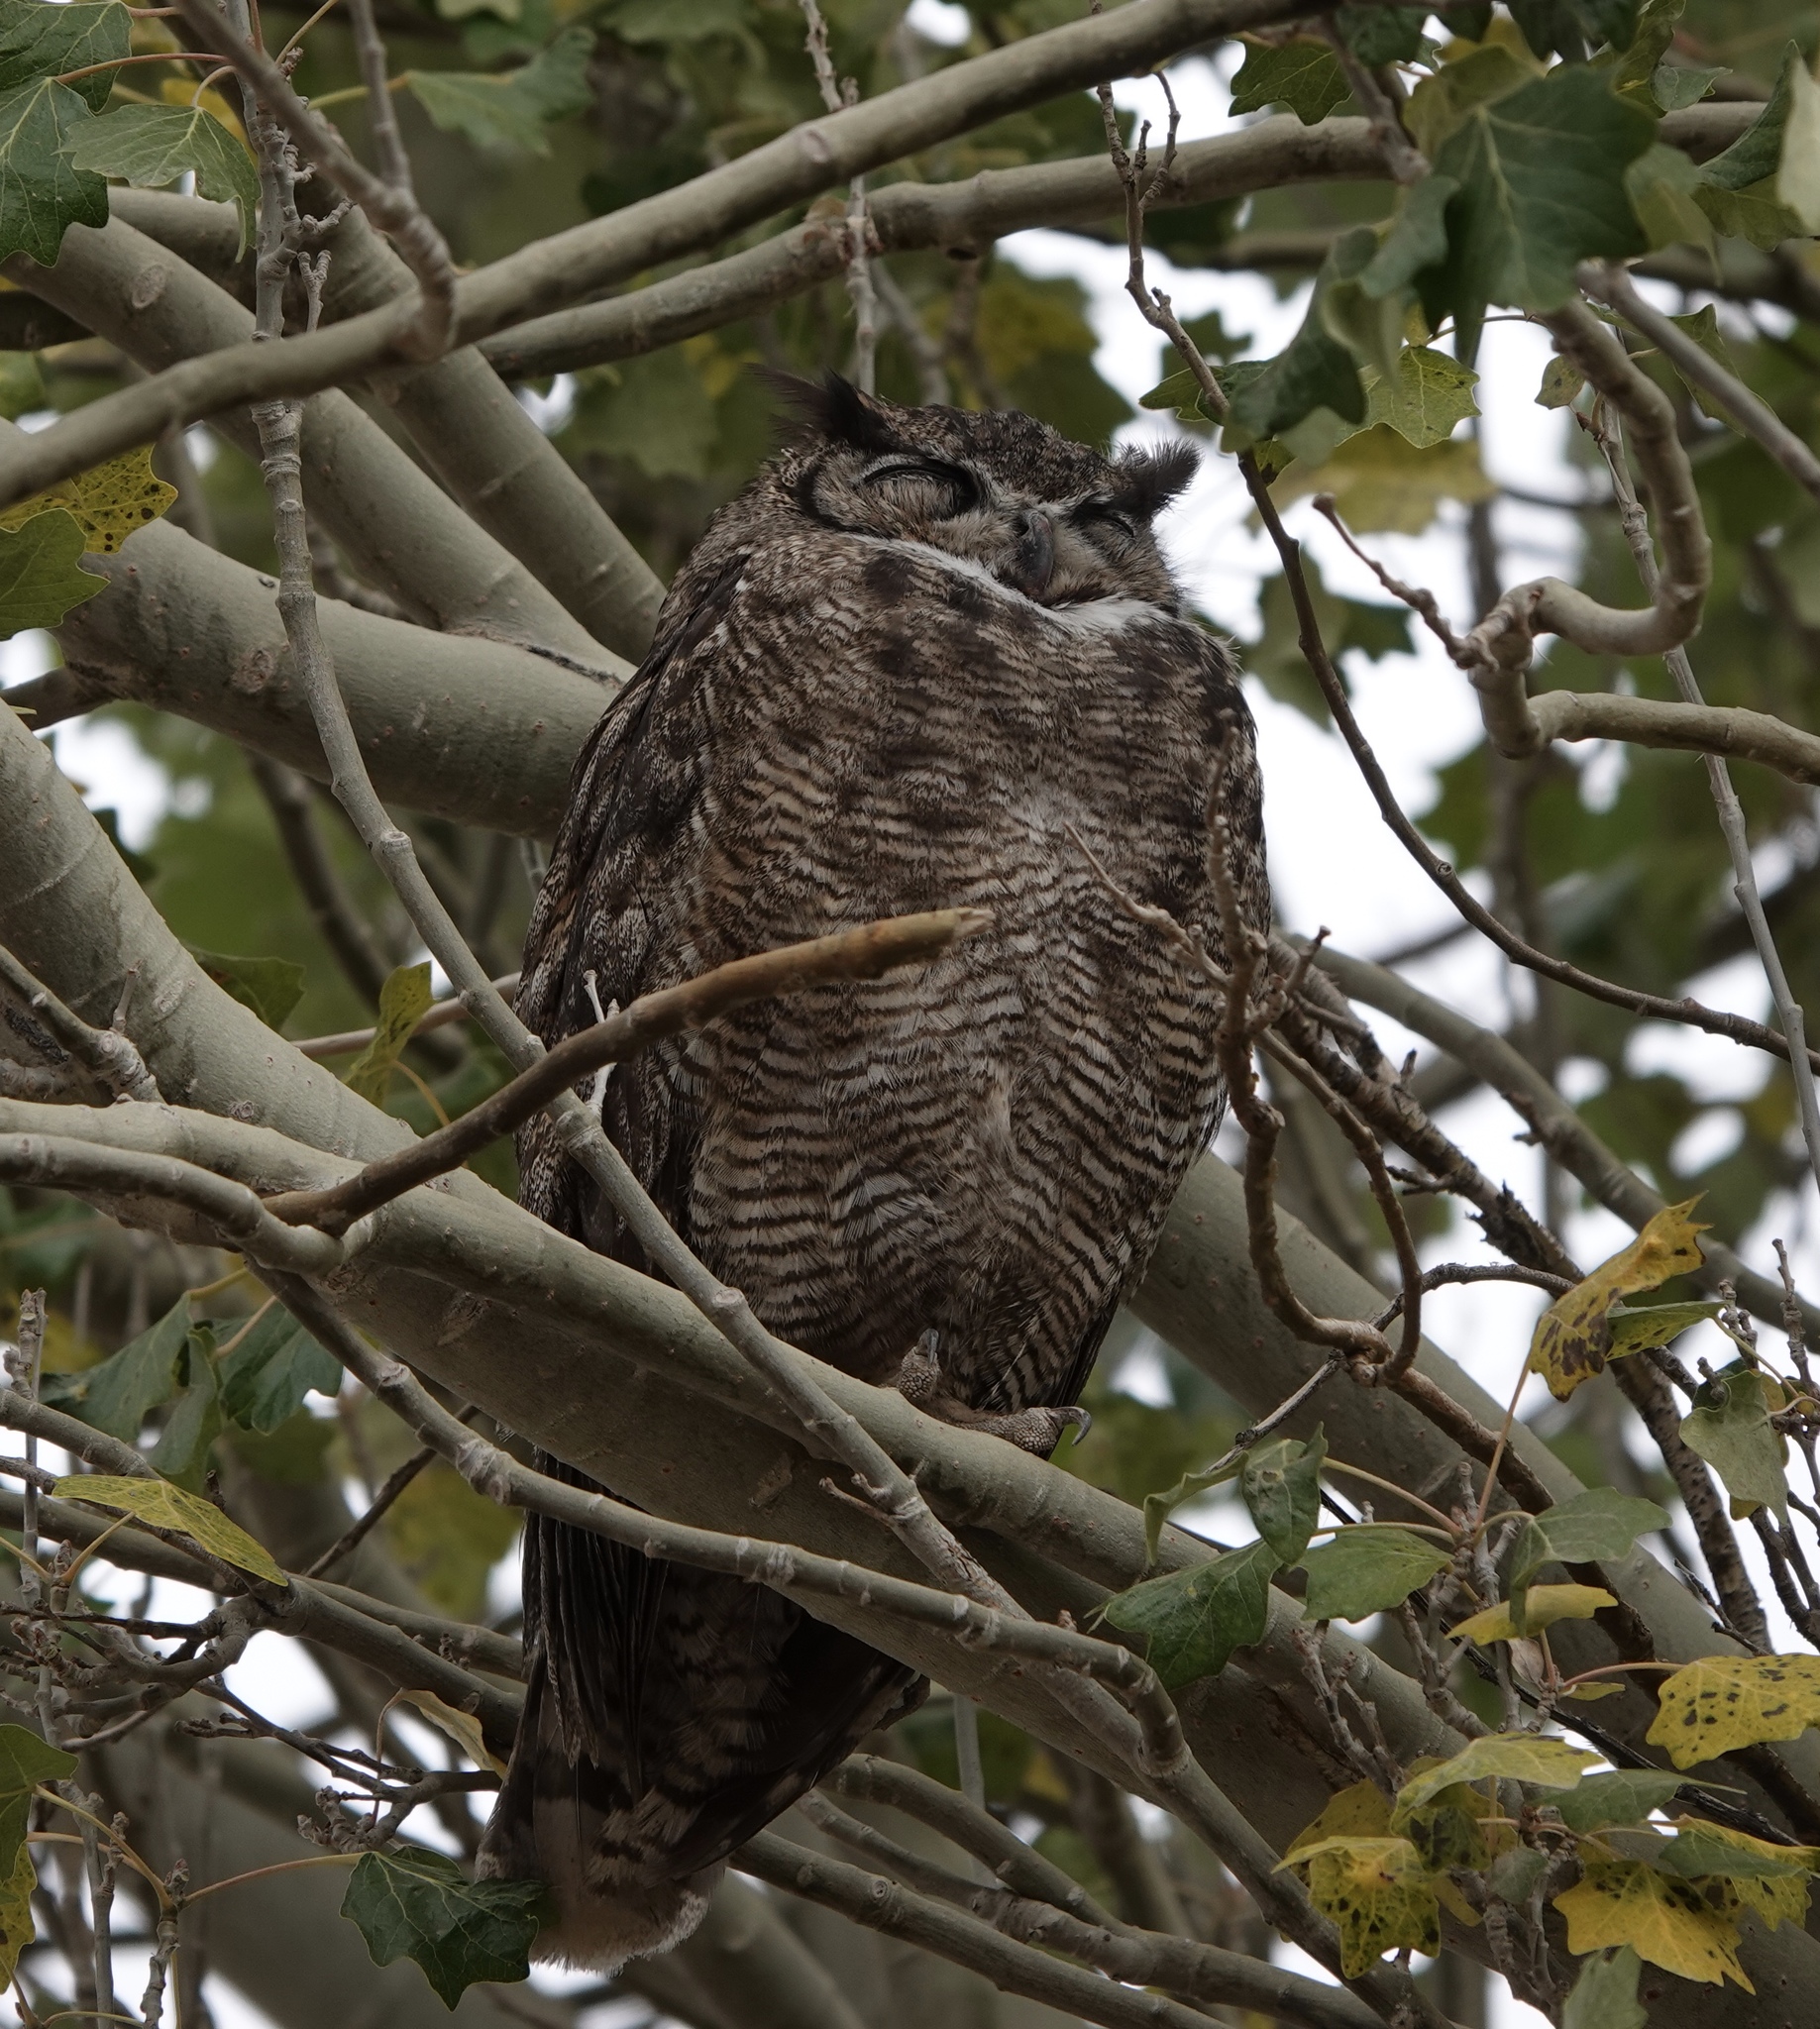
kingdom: Animalia
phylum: Chordata
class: Aves
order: Strigiformes
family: Strigidae
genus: Bubo
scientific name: Bubo magellanicus
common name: Lesser horned owl
